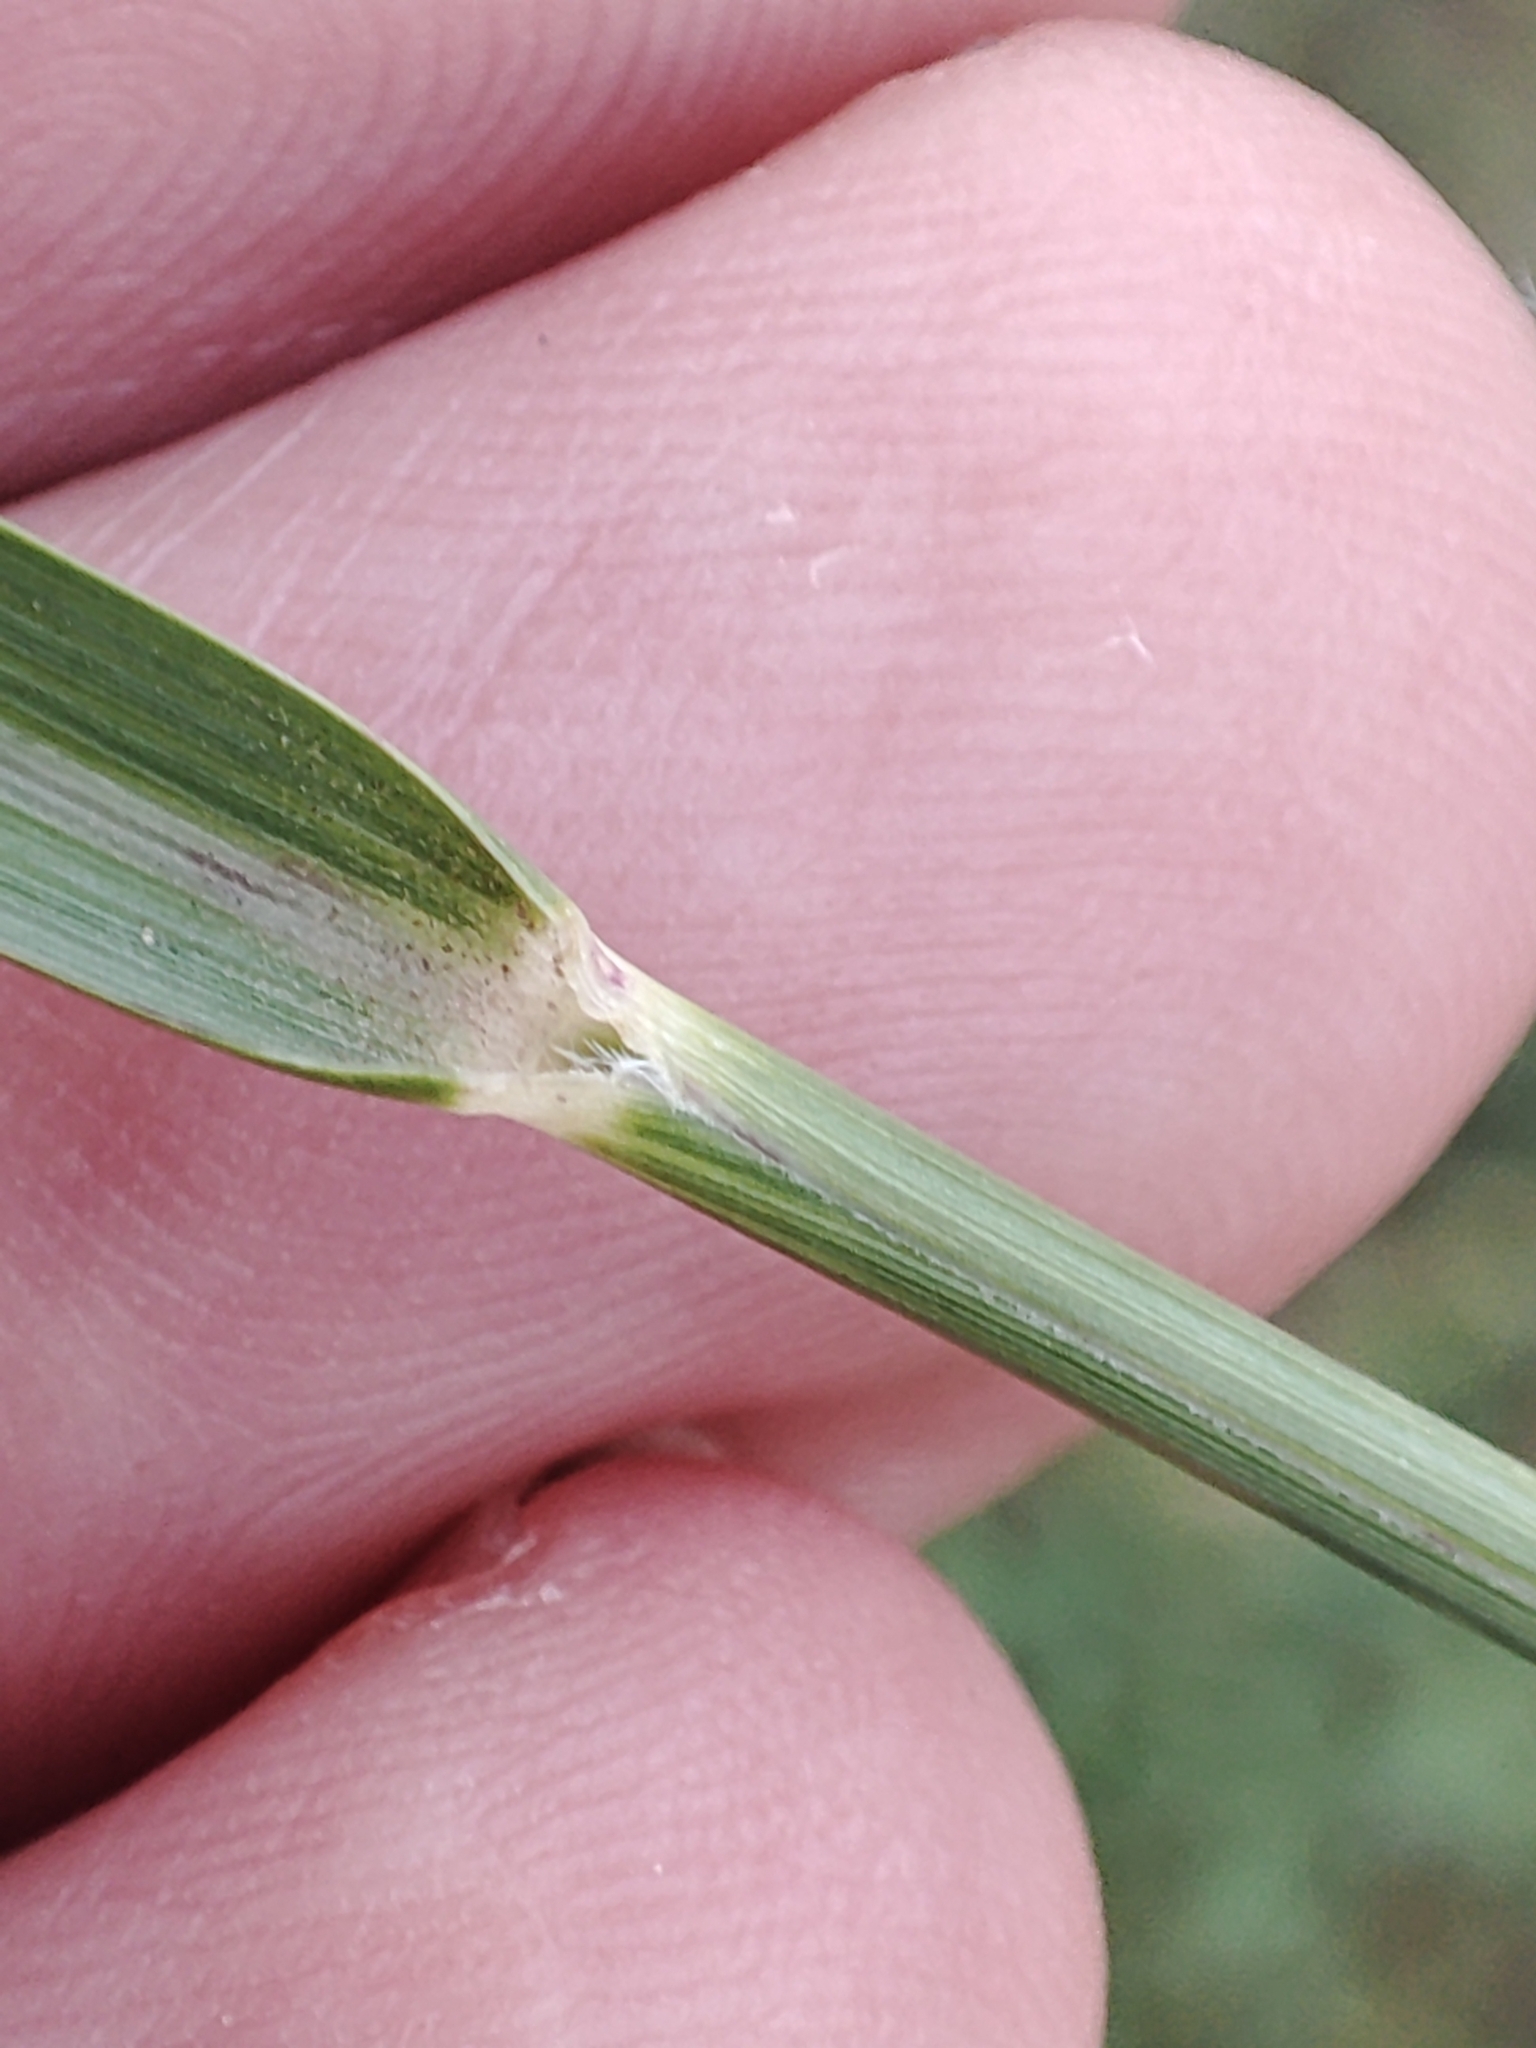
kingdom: Plantae
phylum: Tracheophyta
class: Liliopsida
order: Poales
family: Poaceae
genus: Sporobolus
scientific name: Sporobolus indicus
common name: Smut grass
